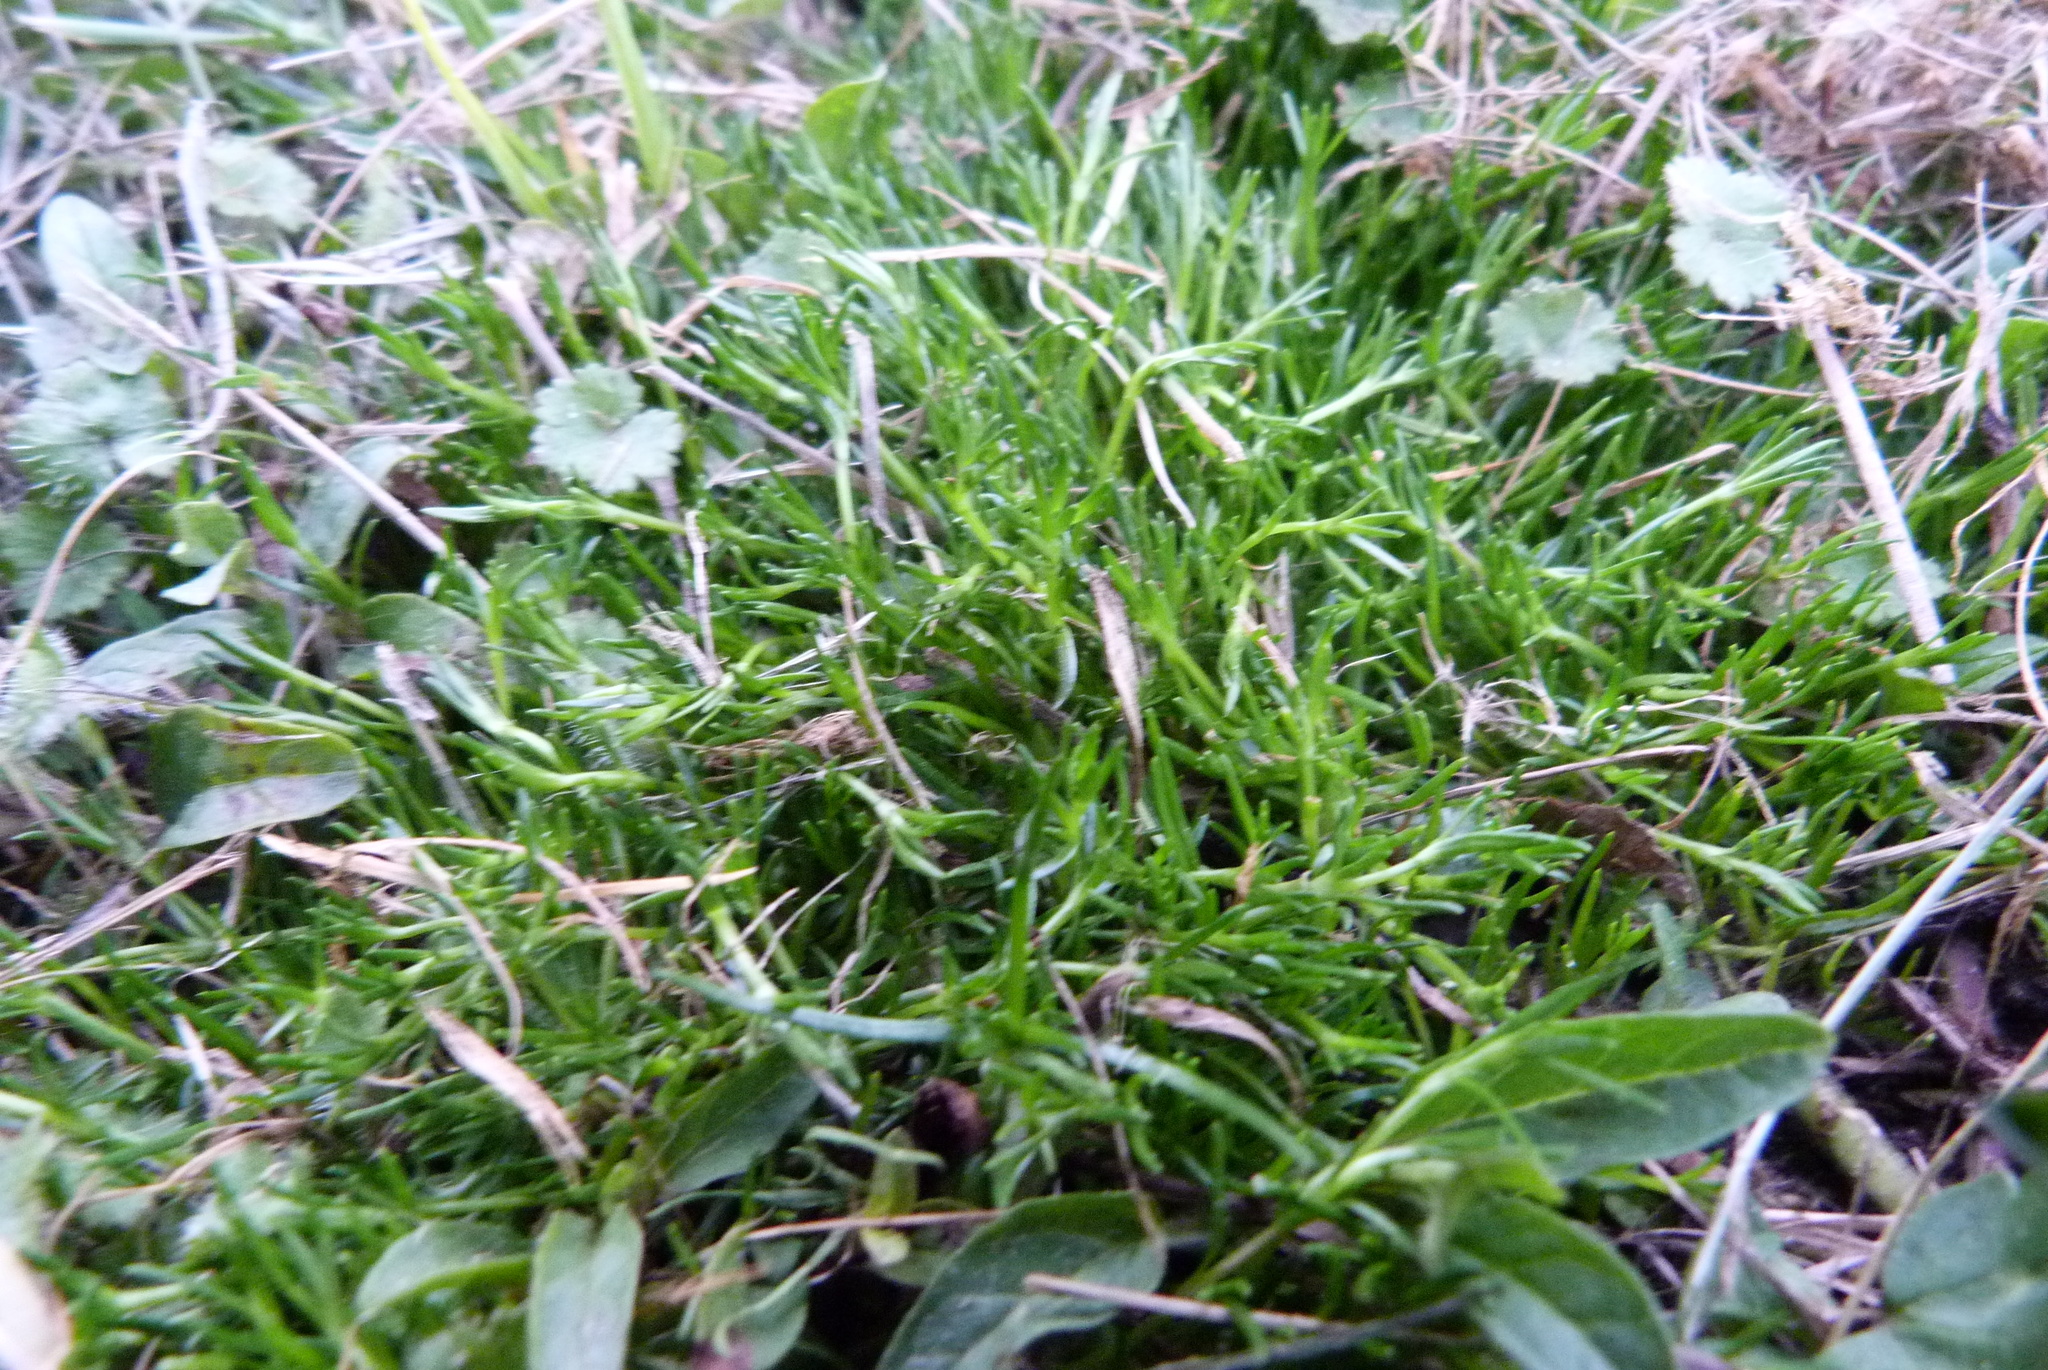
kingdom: Plantae
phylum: Tracheophyta
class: Magnoliopsida
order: Caryophyllales
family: Caryophyllaceae
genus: Sagina
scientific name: Sagina procumbens
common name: Procumbent pearlwort
